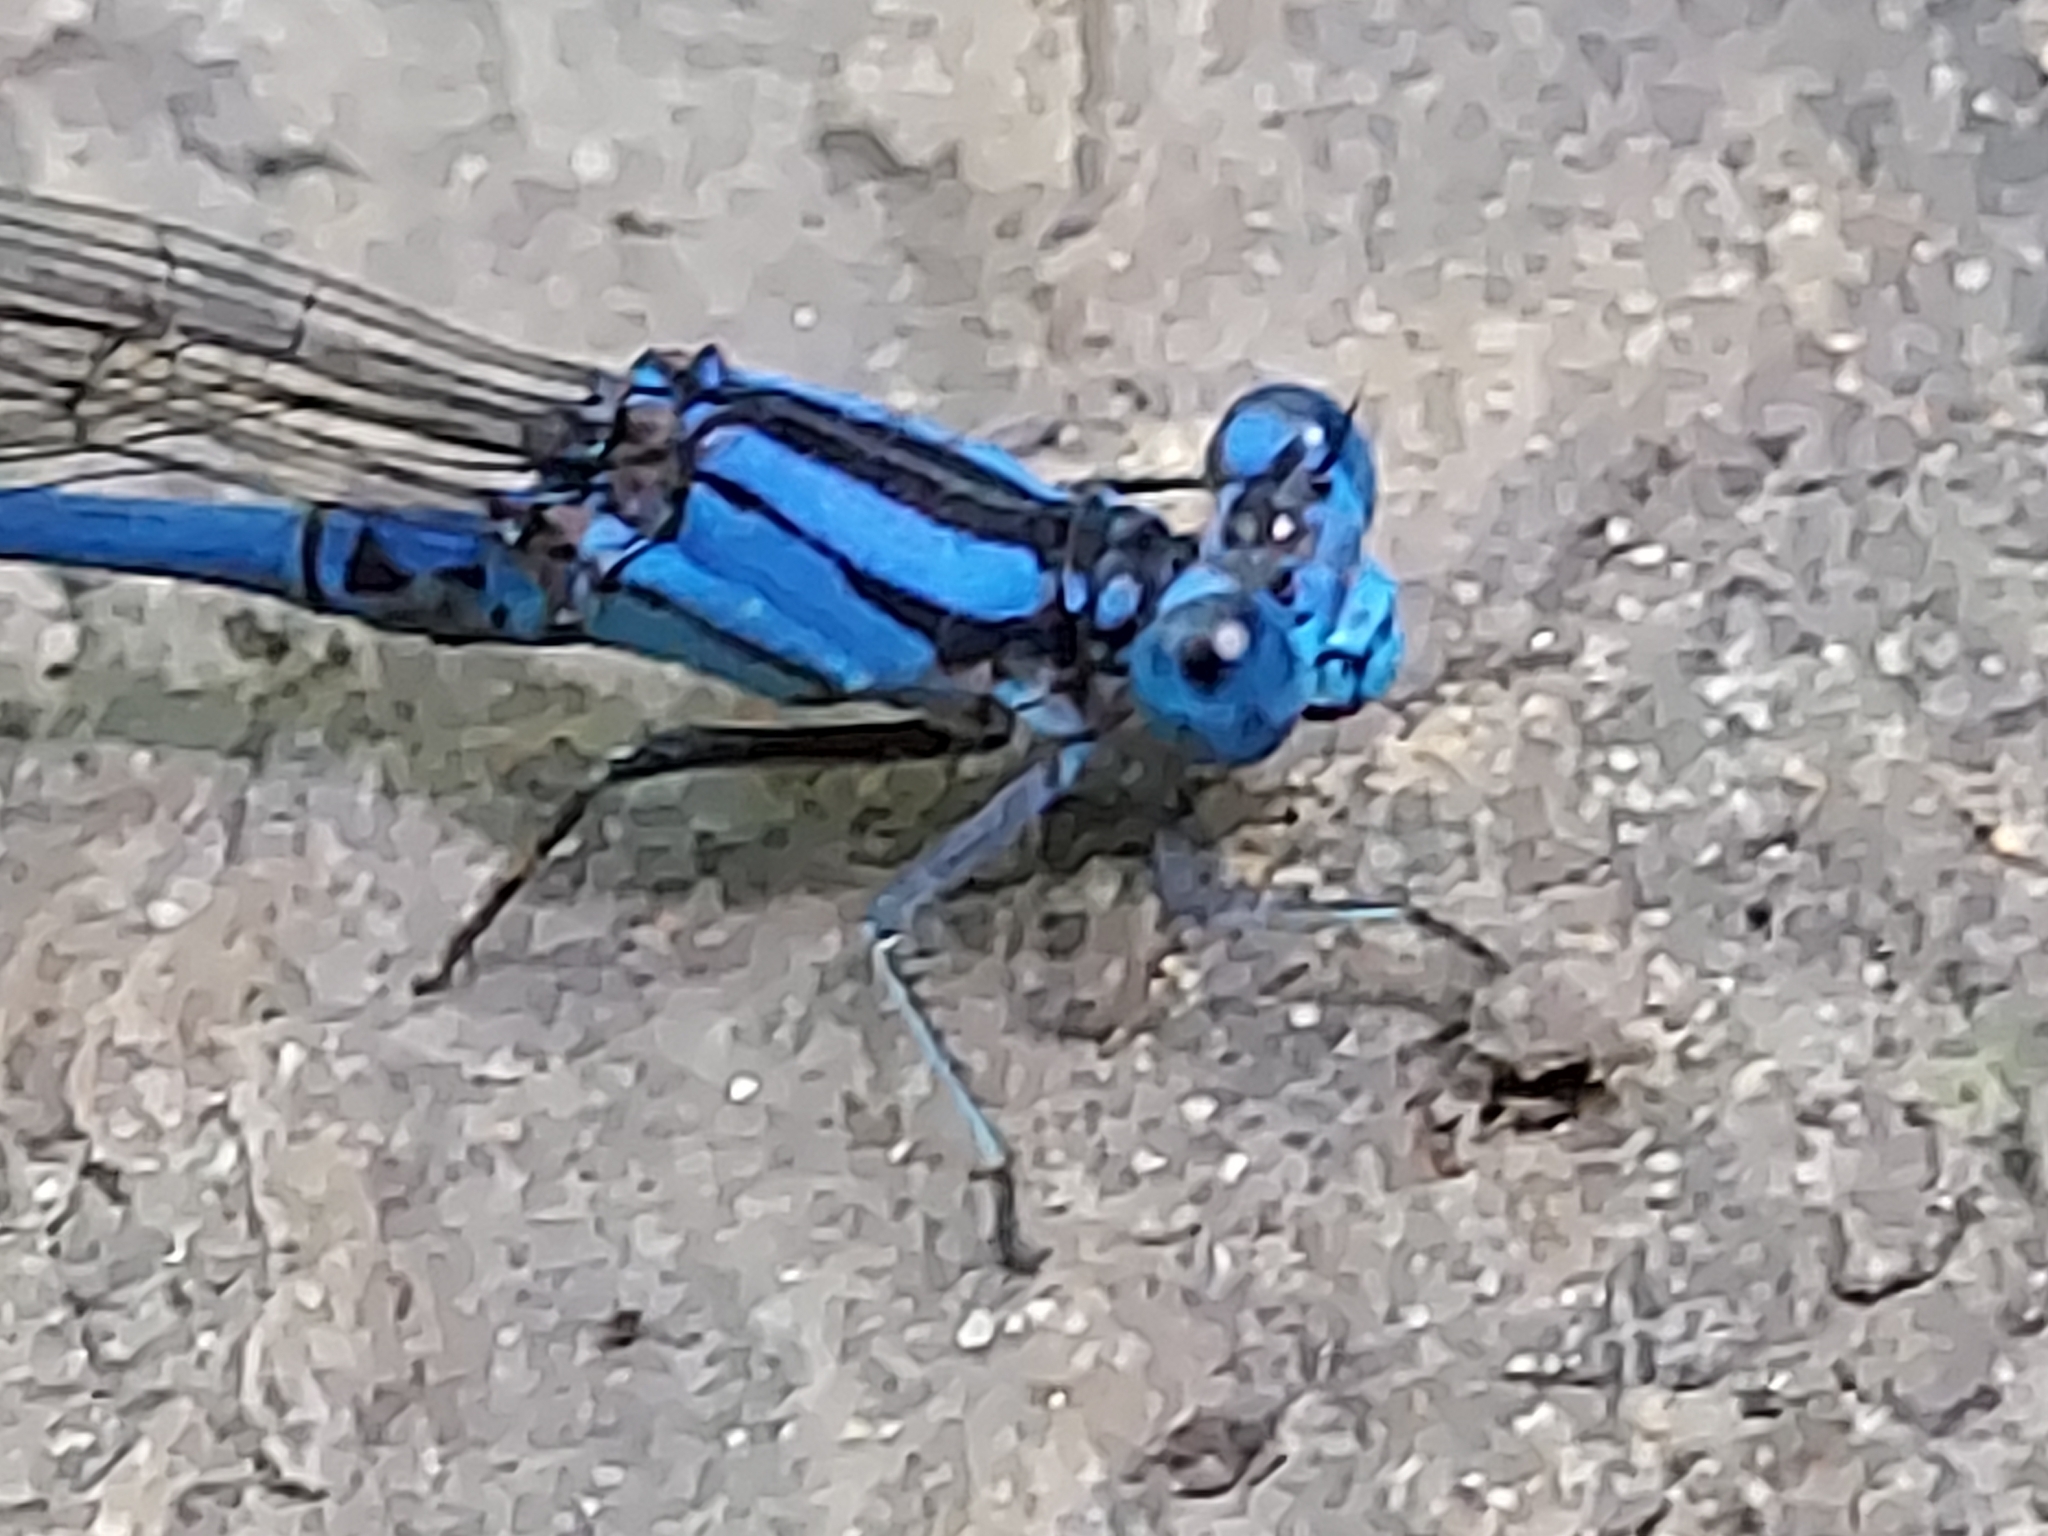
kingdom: Animalia
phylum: Arthropoda
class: Insecta
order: Odonata
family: Coenagrionidae
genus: Argia
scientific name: Argia funebris
